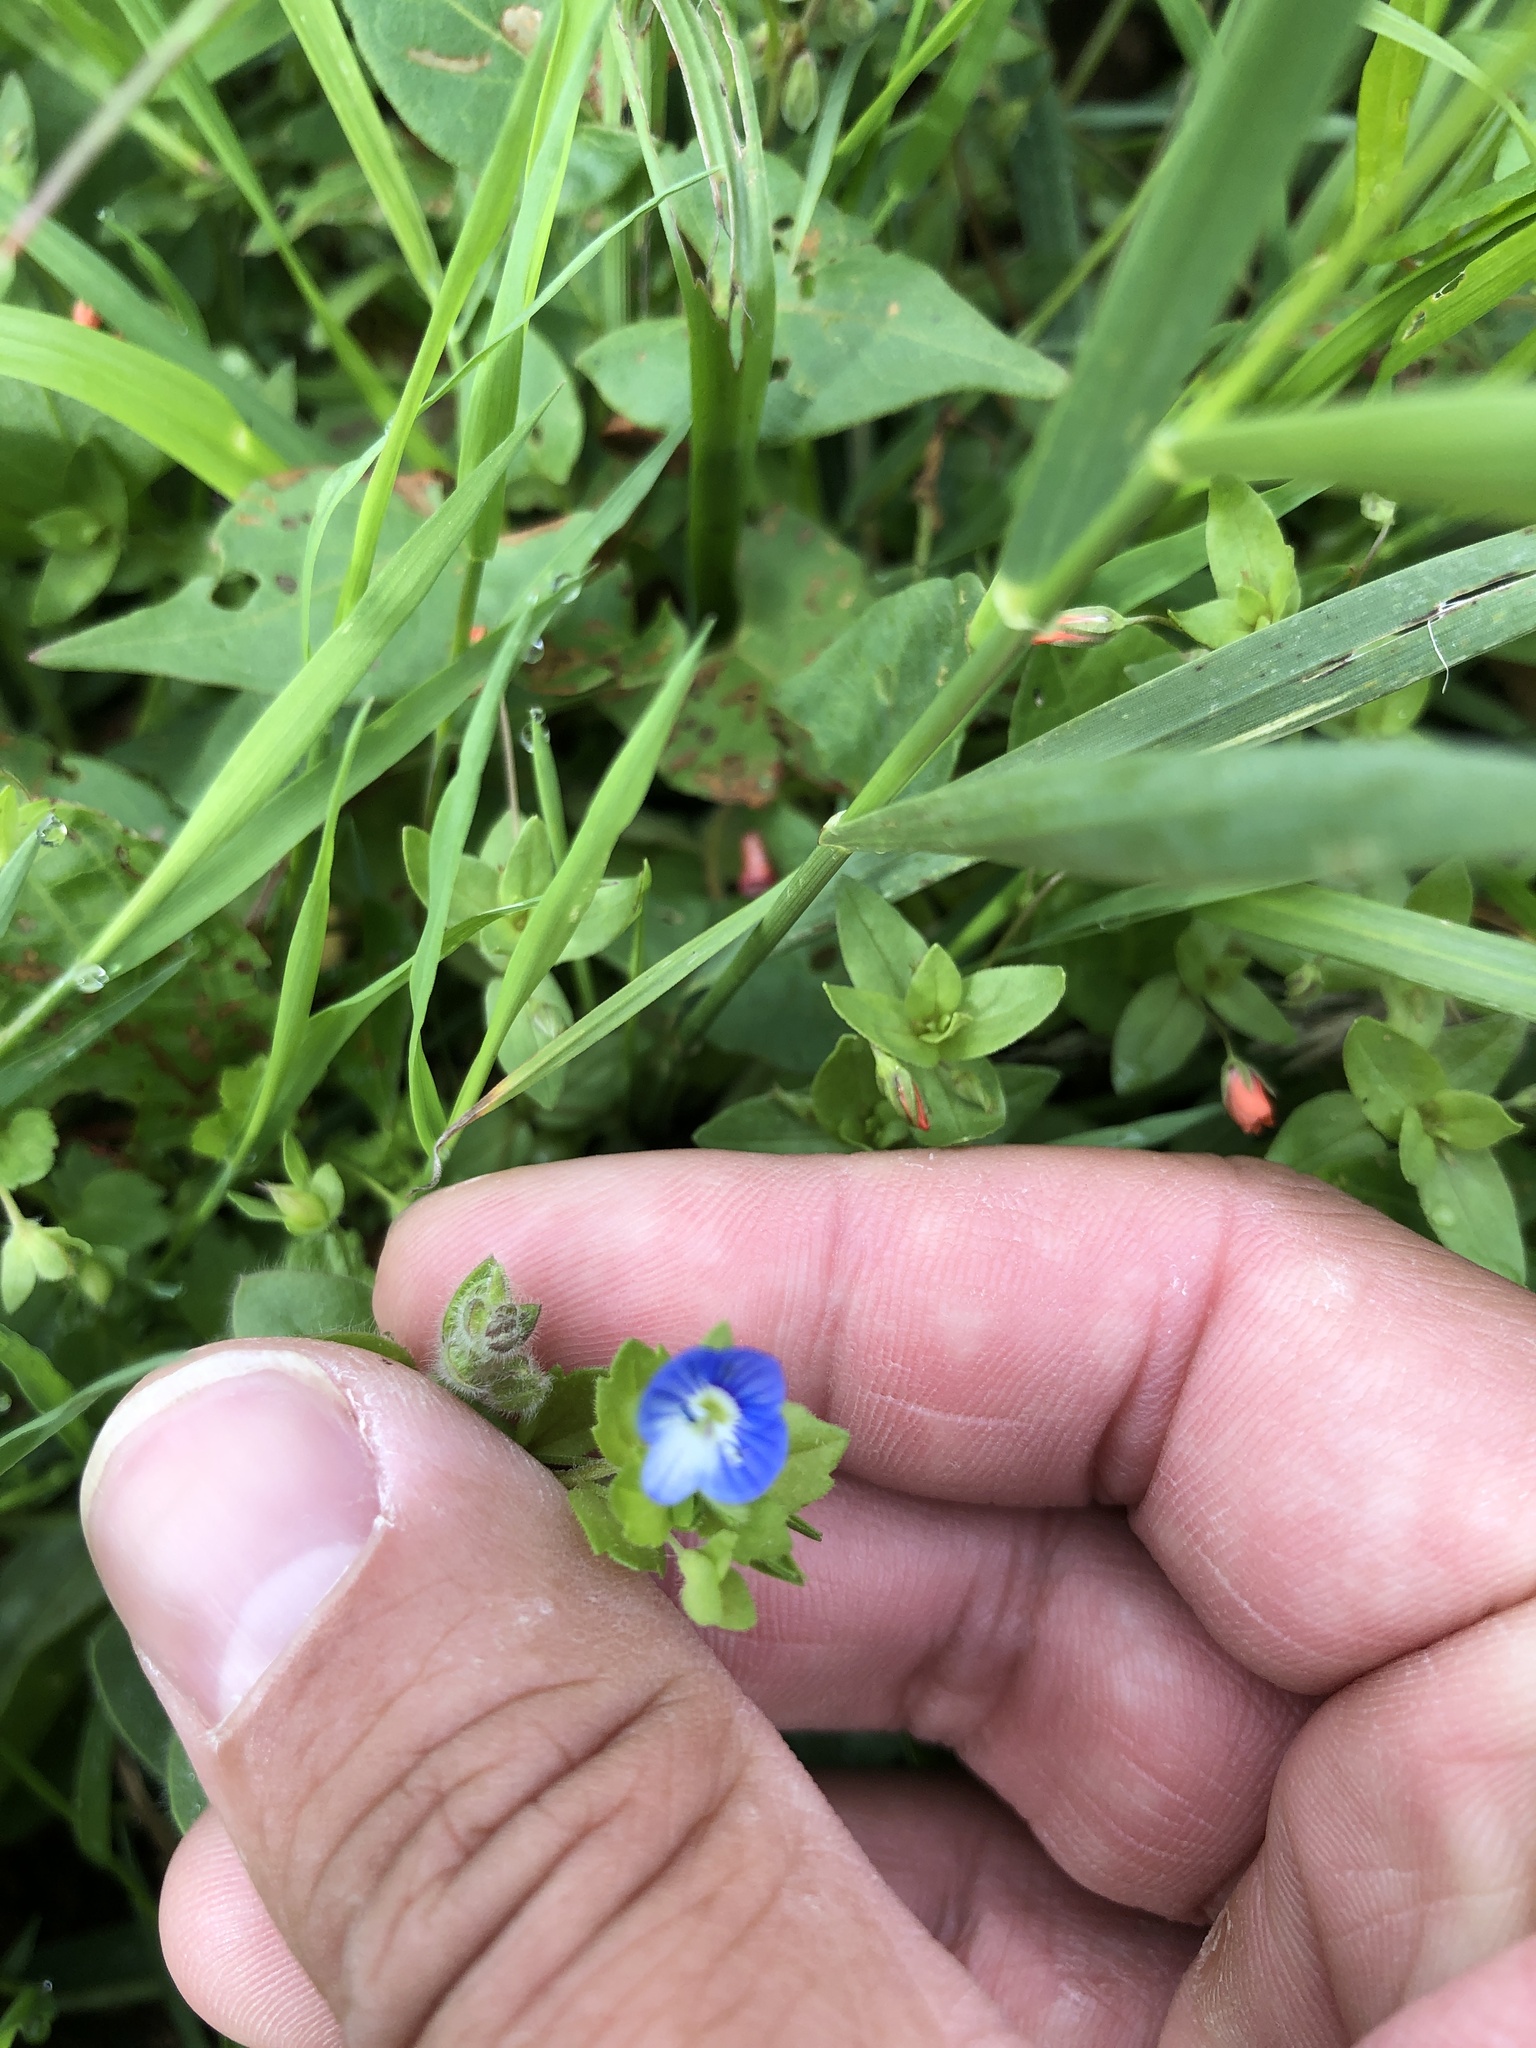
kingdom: Plantae
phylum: Tracheophyta
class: Magnoliopsida
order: Lamiales
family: Plantaginaceae
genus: Veronica
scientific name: Veronica chamaedrys
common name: Germander speedwell
